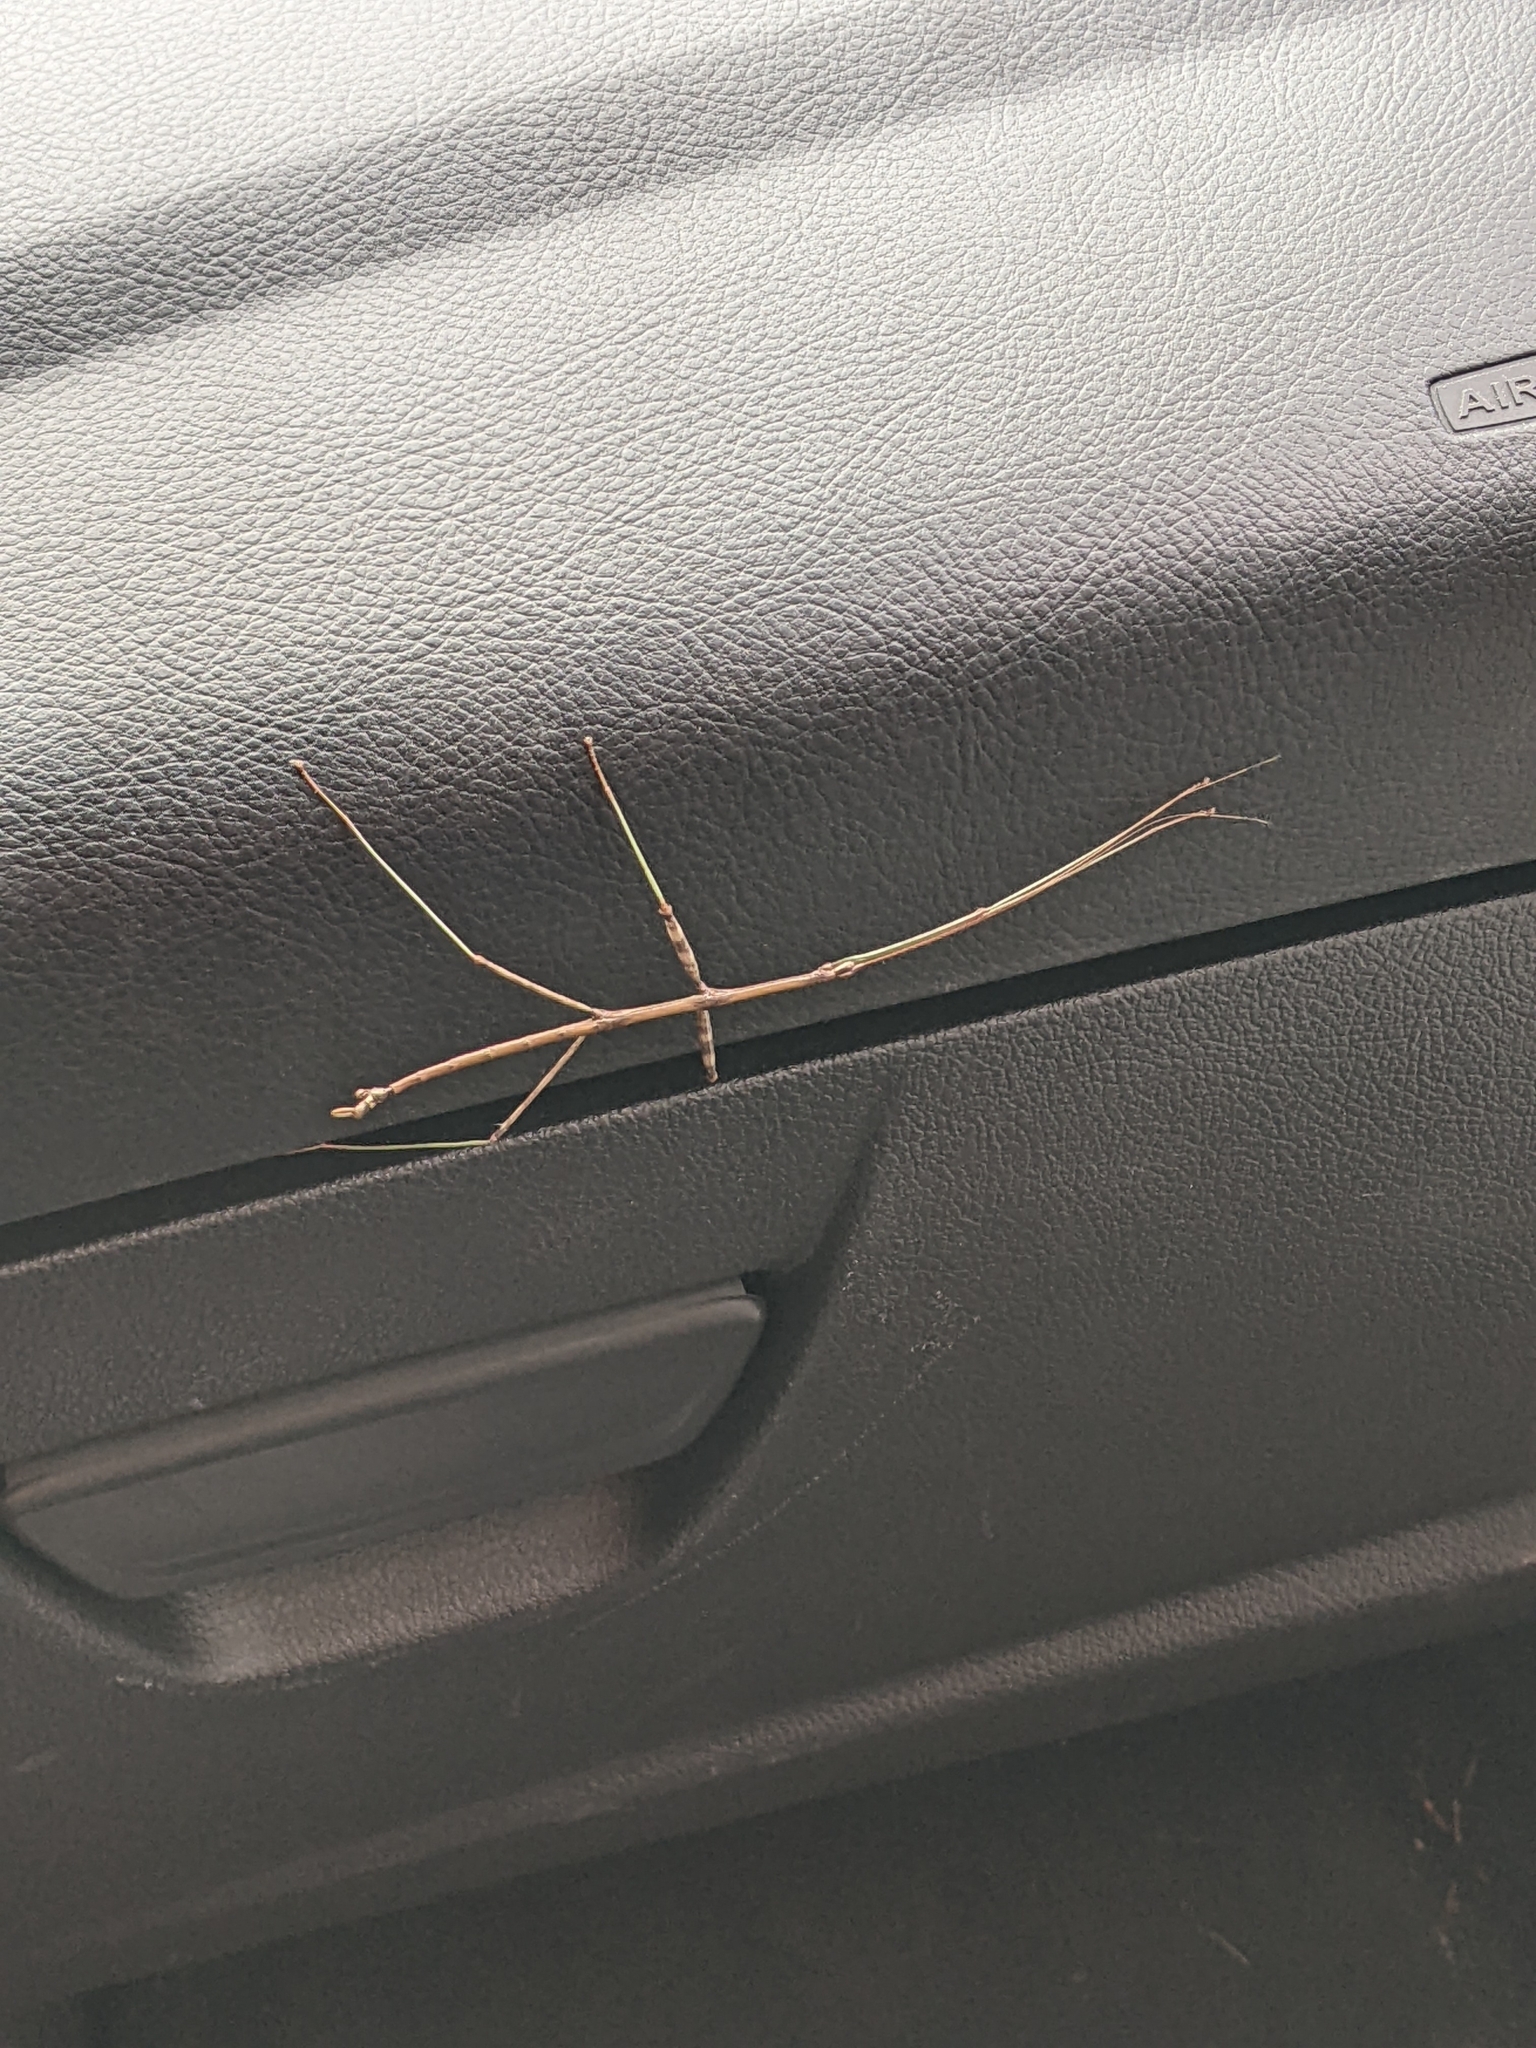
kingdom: Animalia
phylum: Arthropoda
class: Insecta
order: Phasmida
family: Diapheromeridae
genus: Diapheromera
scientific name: Diapheromera femorata
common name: Common american walkingstick
